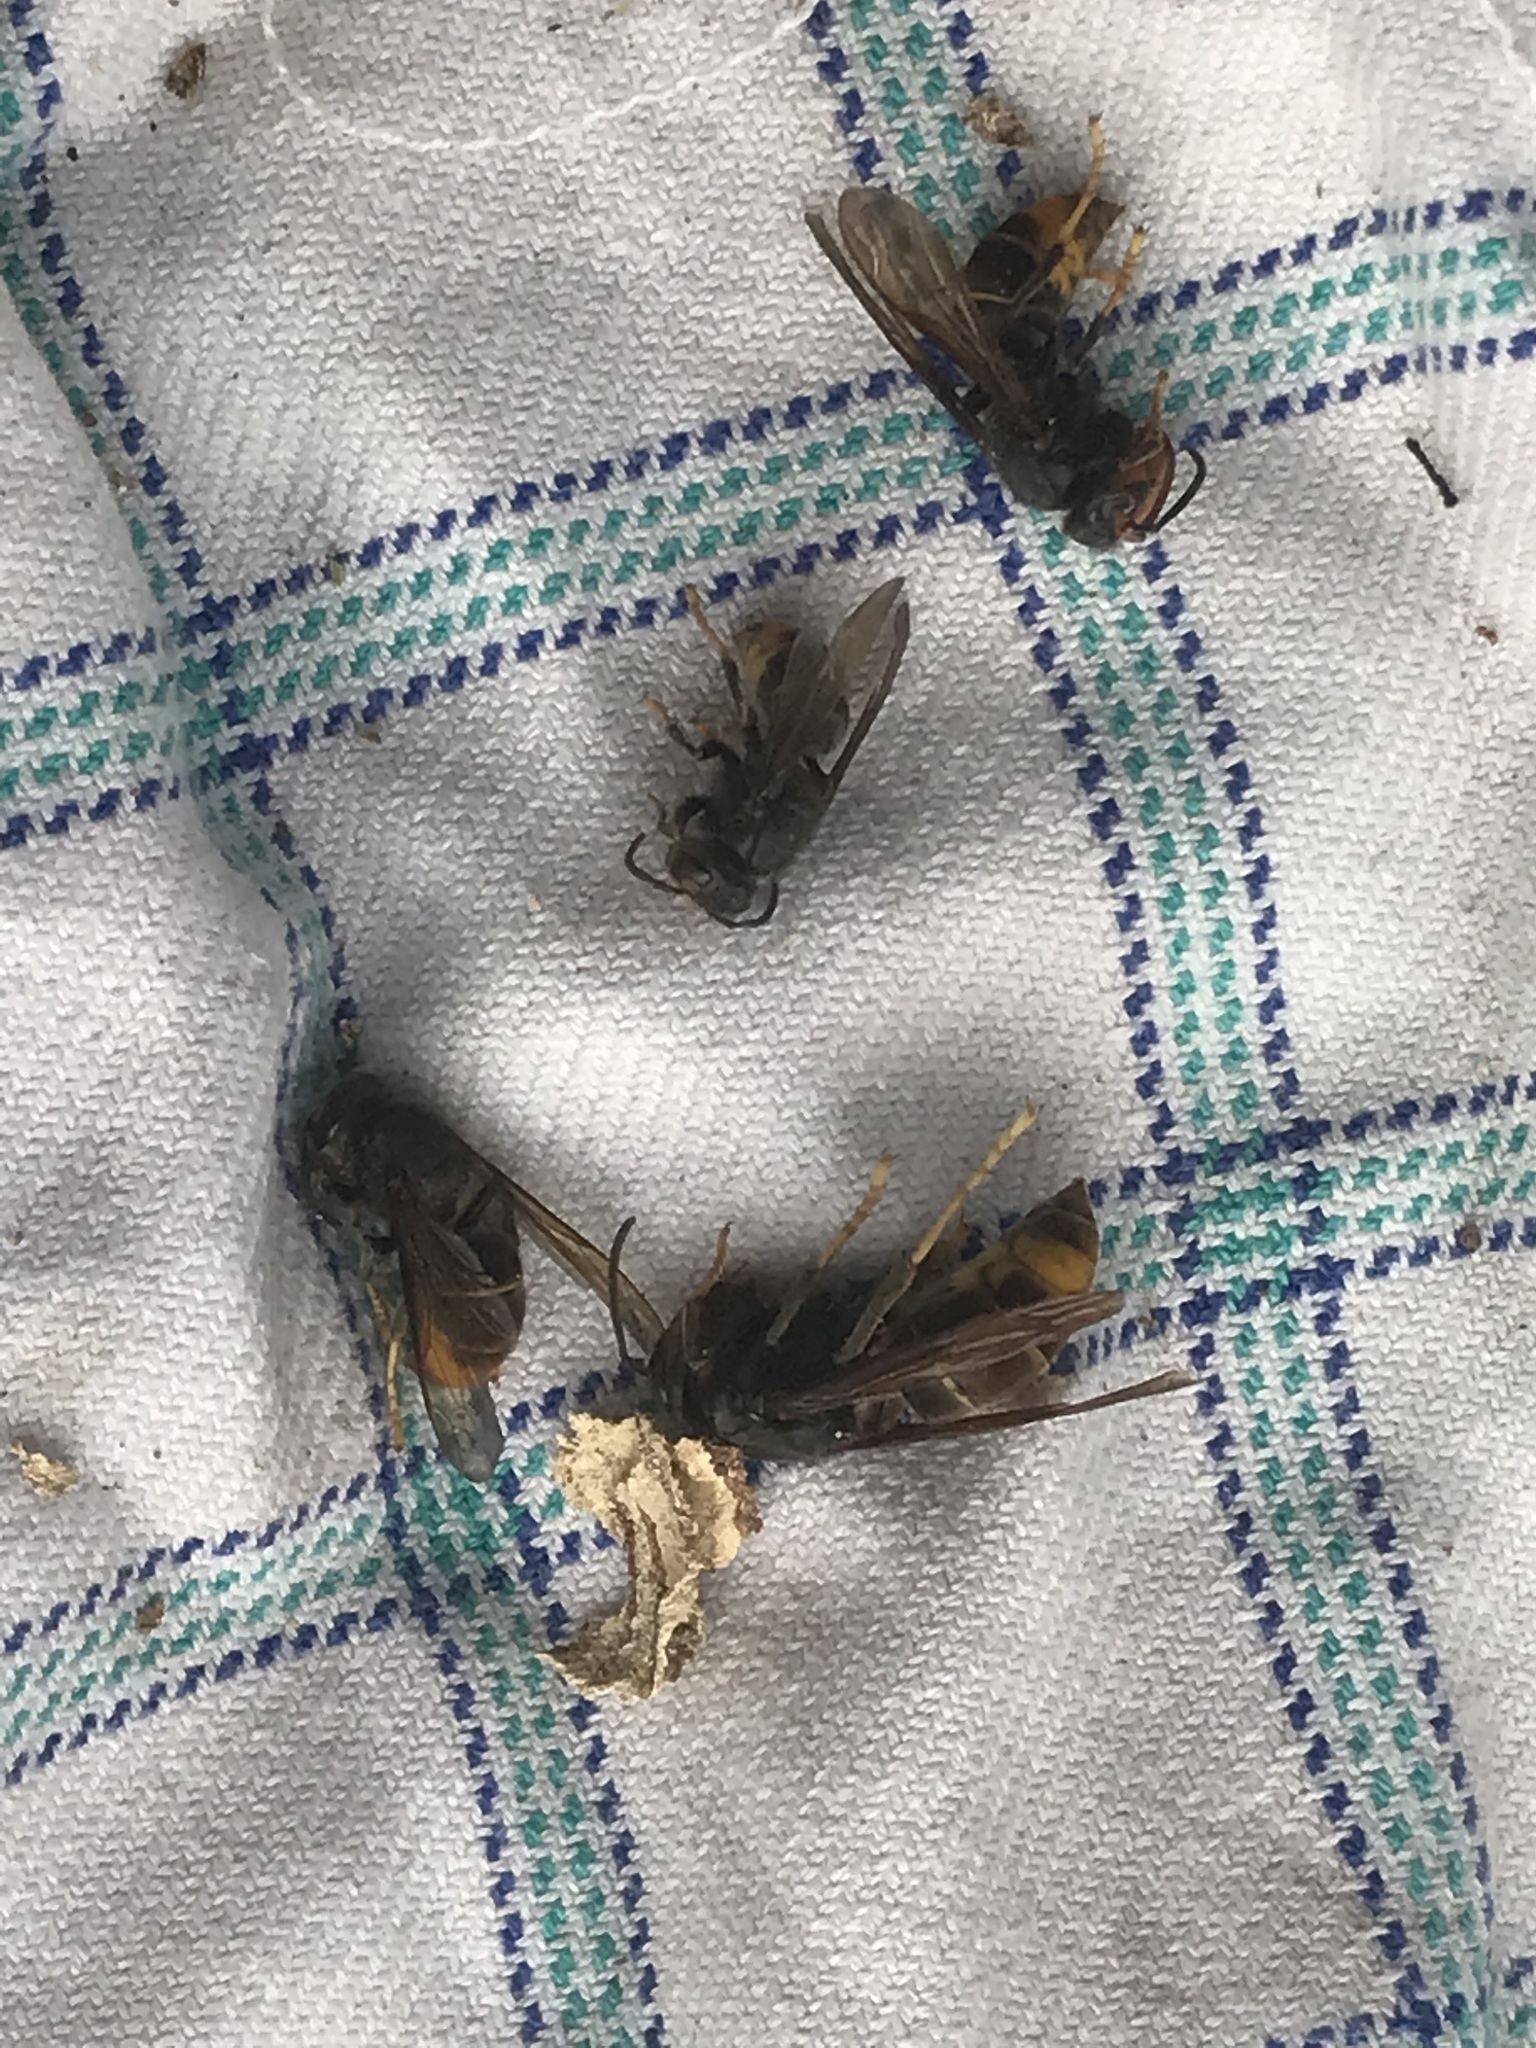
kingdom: Animalia
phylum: Arthropoda
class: Insecta
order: Hymenoptera
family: Vespidae
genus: Vespa
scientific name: Vespa velutina
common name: Asian hornet
